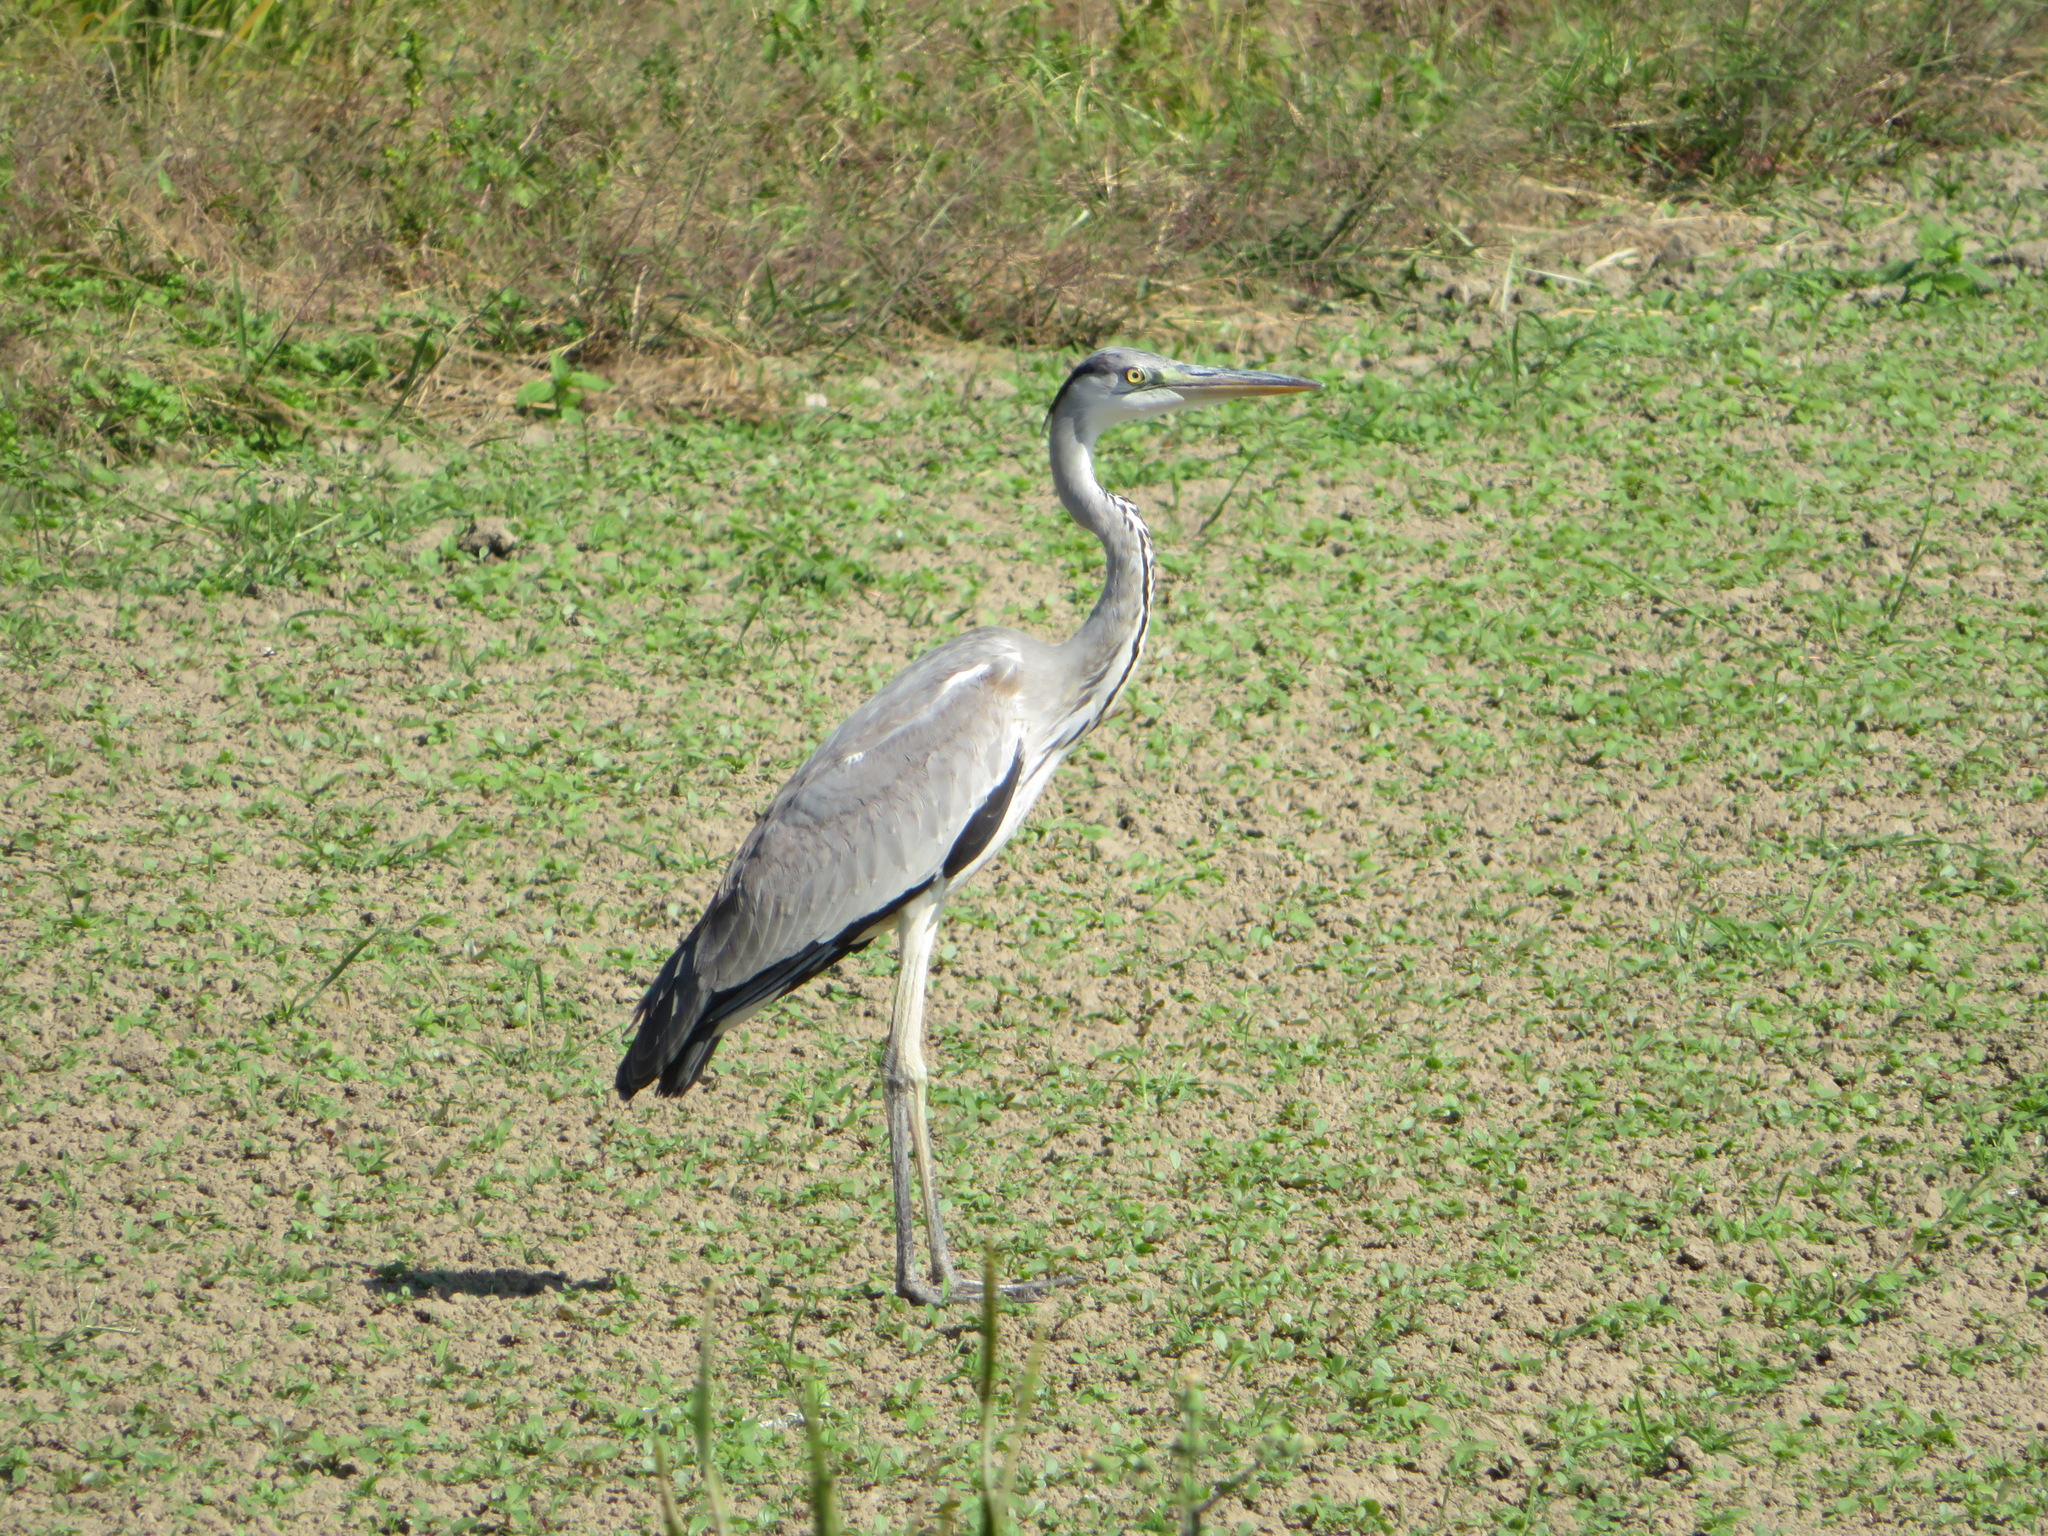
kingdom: Animalia
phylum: Chordata
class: Aves
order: Pelecaniformes
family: Ardeidae
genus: Ardea
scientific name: Ardea cinerea
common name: Grey heron
